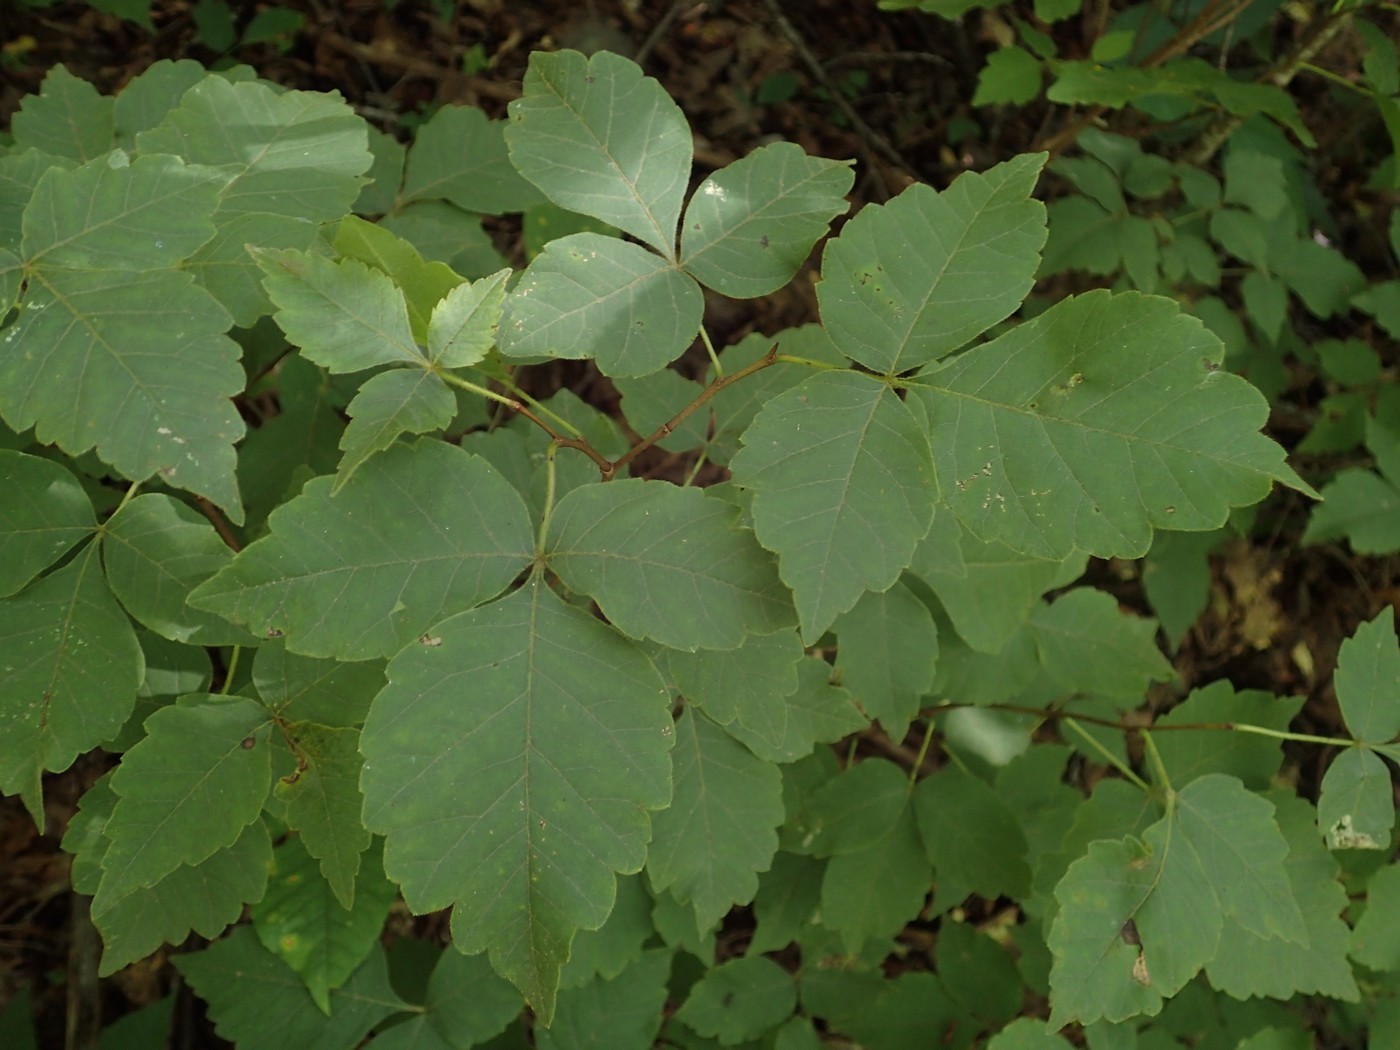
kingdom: Plantae
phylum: Tracheophyta
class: Magnoliopsida
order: Sapindales
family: Anacardiaceae
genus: Rhus
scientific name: Rhus aromatica
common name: Aromatic sumac
